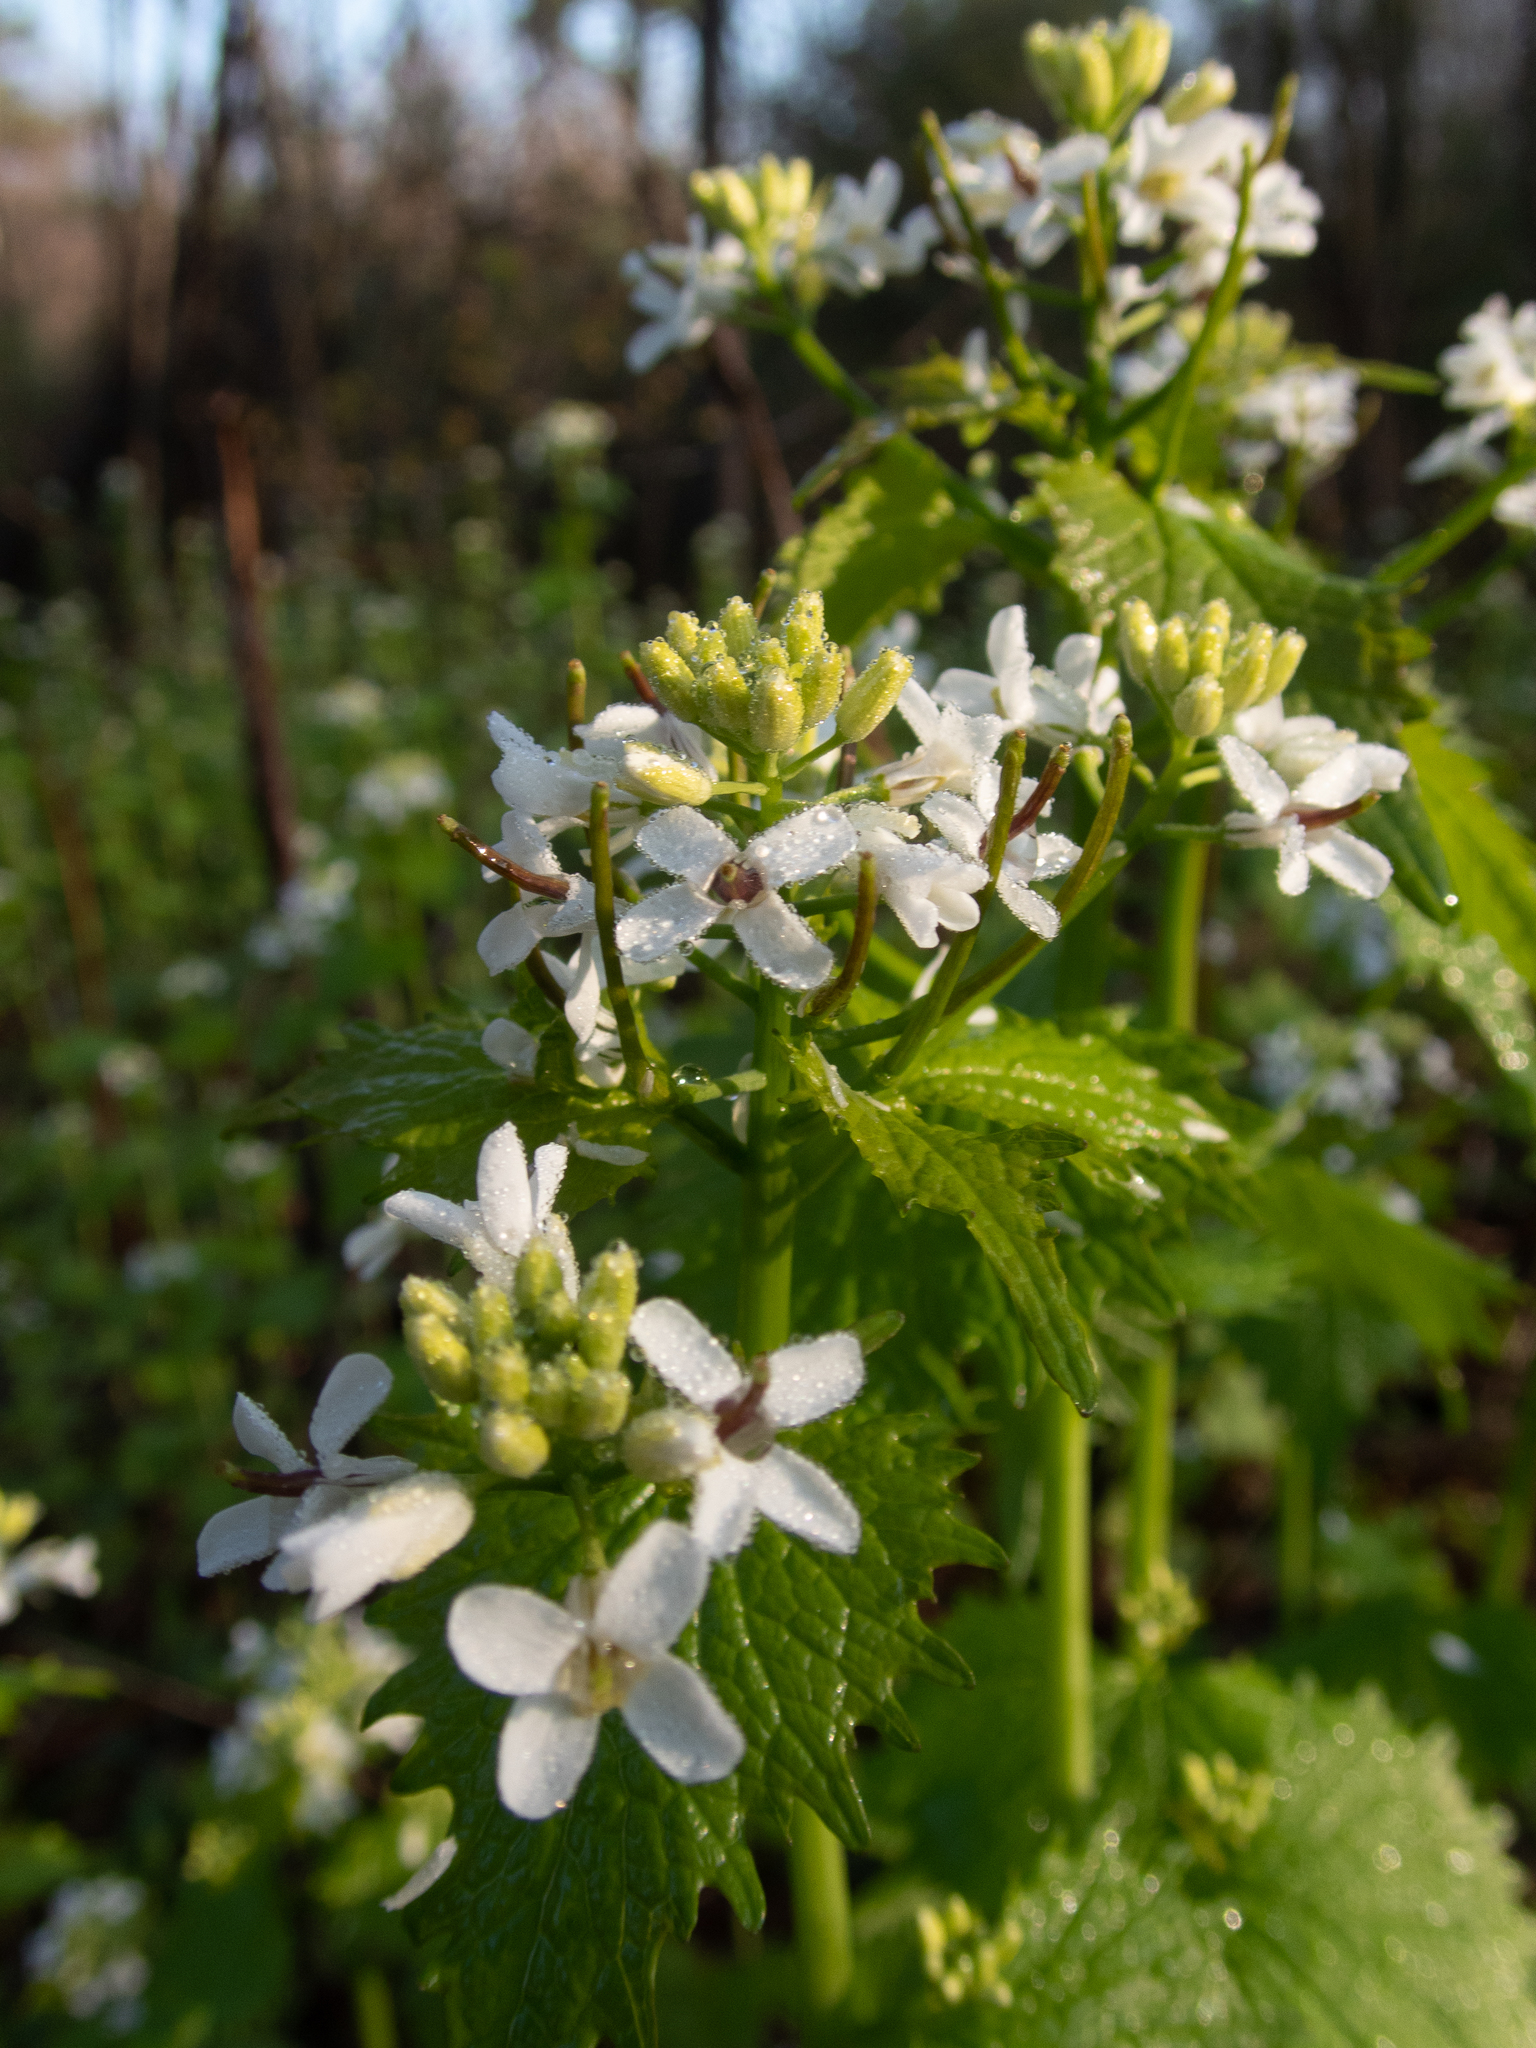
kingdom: Plantae
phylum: Tracheophyta
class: Magnoliopsida
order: Brassicales
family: Brassicaceae
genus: Alliaria
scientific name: Alliaria petiolata
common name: Garlic mustard
